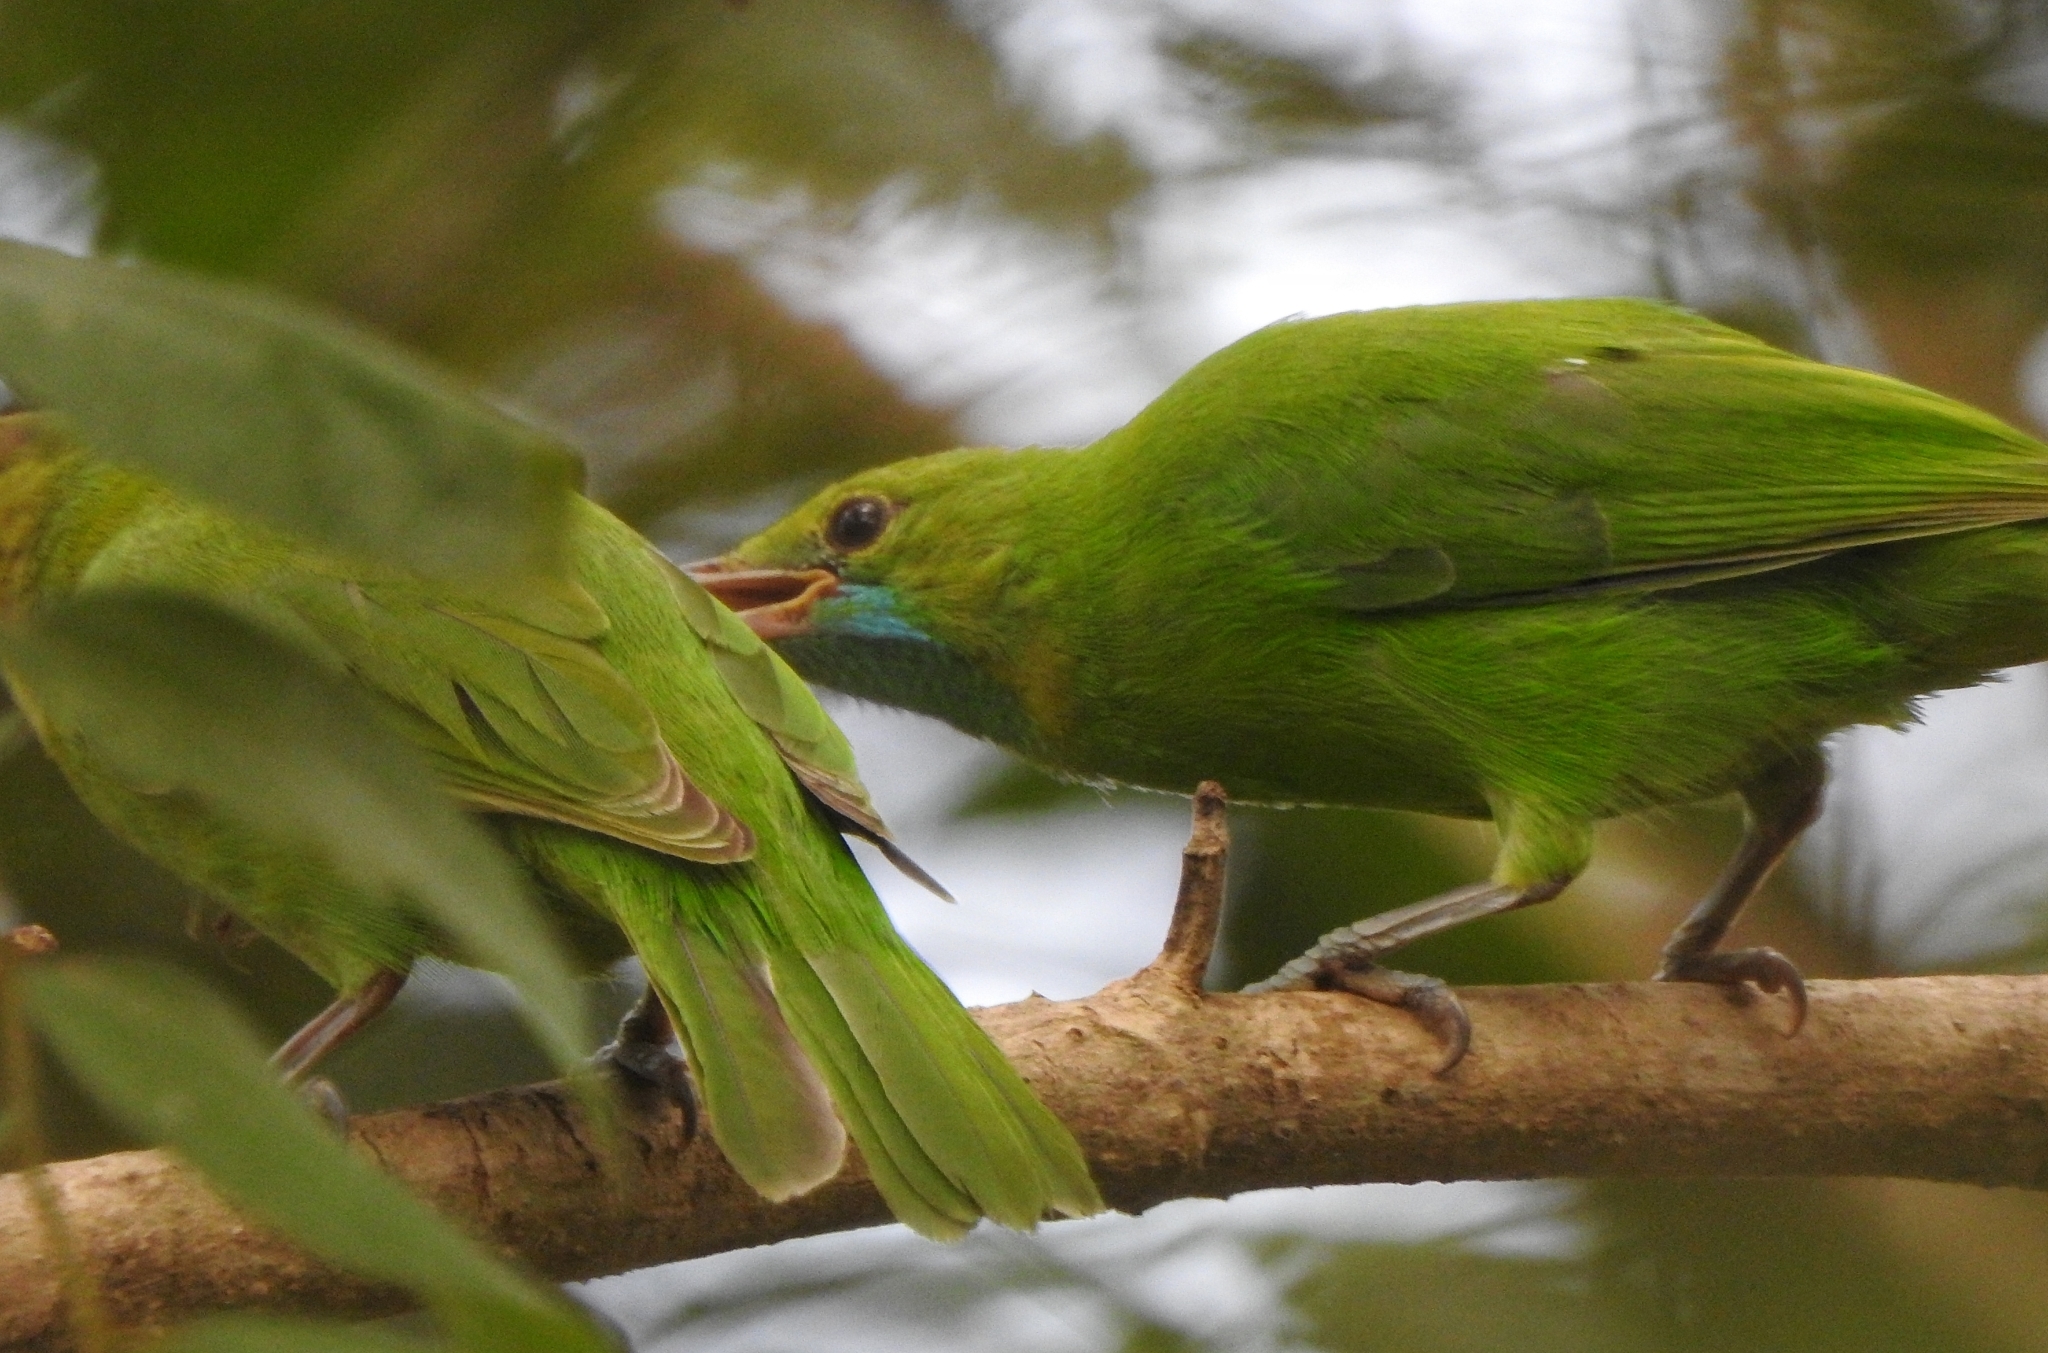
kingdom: Animalia
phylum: Chordata
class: Aves
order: Passeriformes
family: Chloropseidae
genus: Chloropsis
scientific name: Chloropsis jerdoni
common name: Jerdon's leafbird
